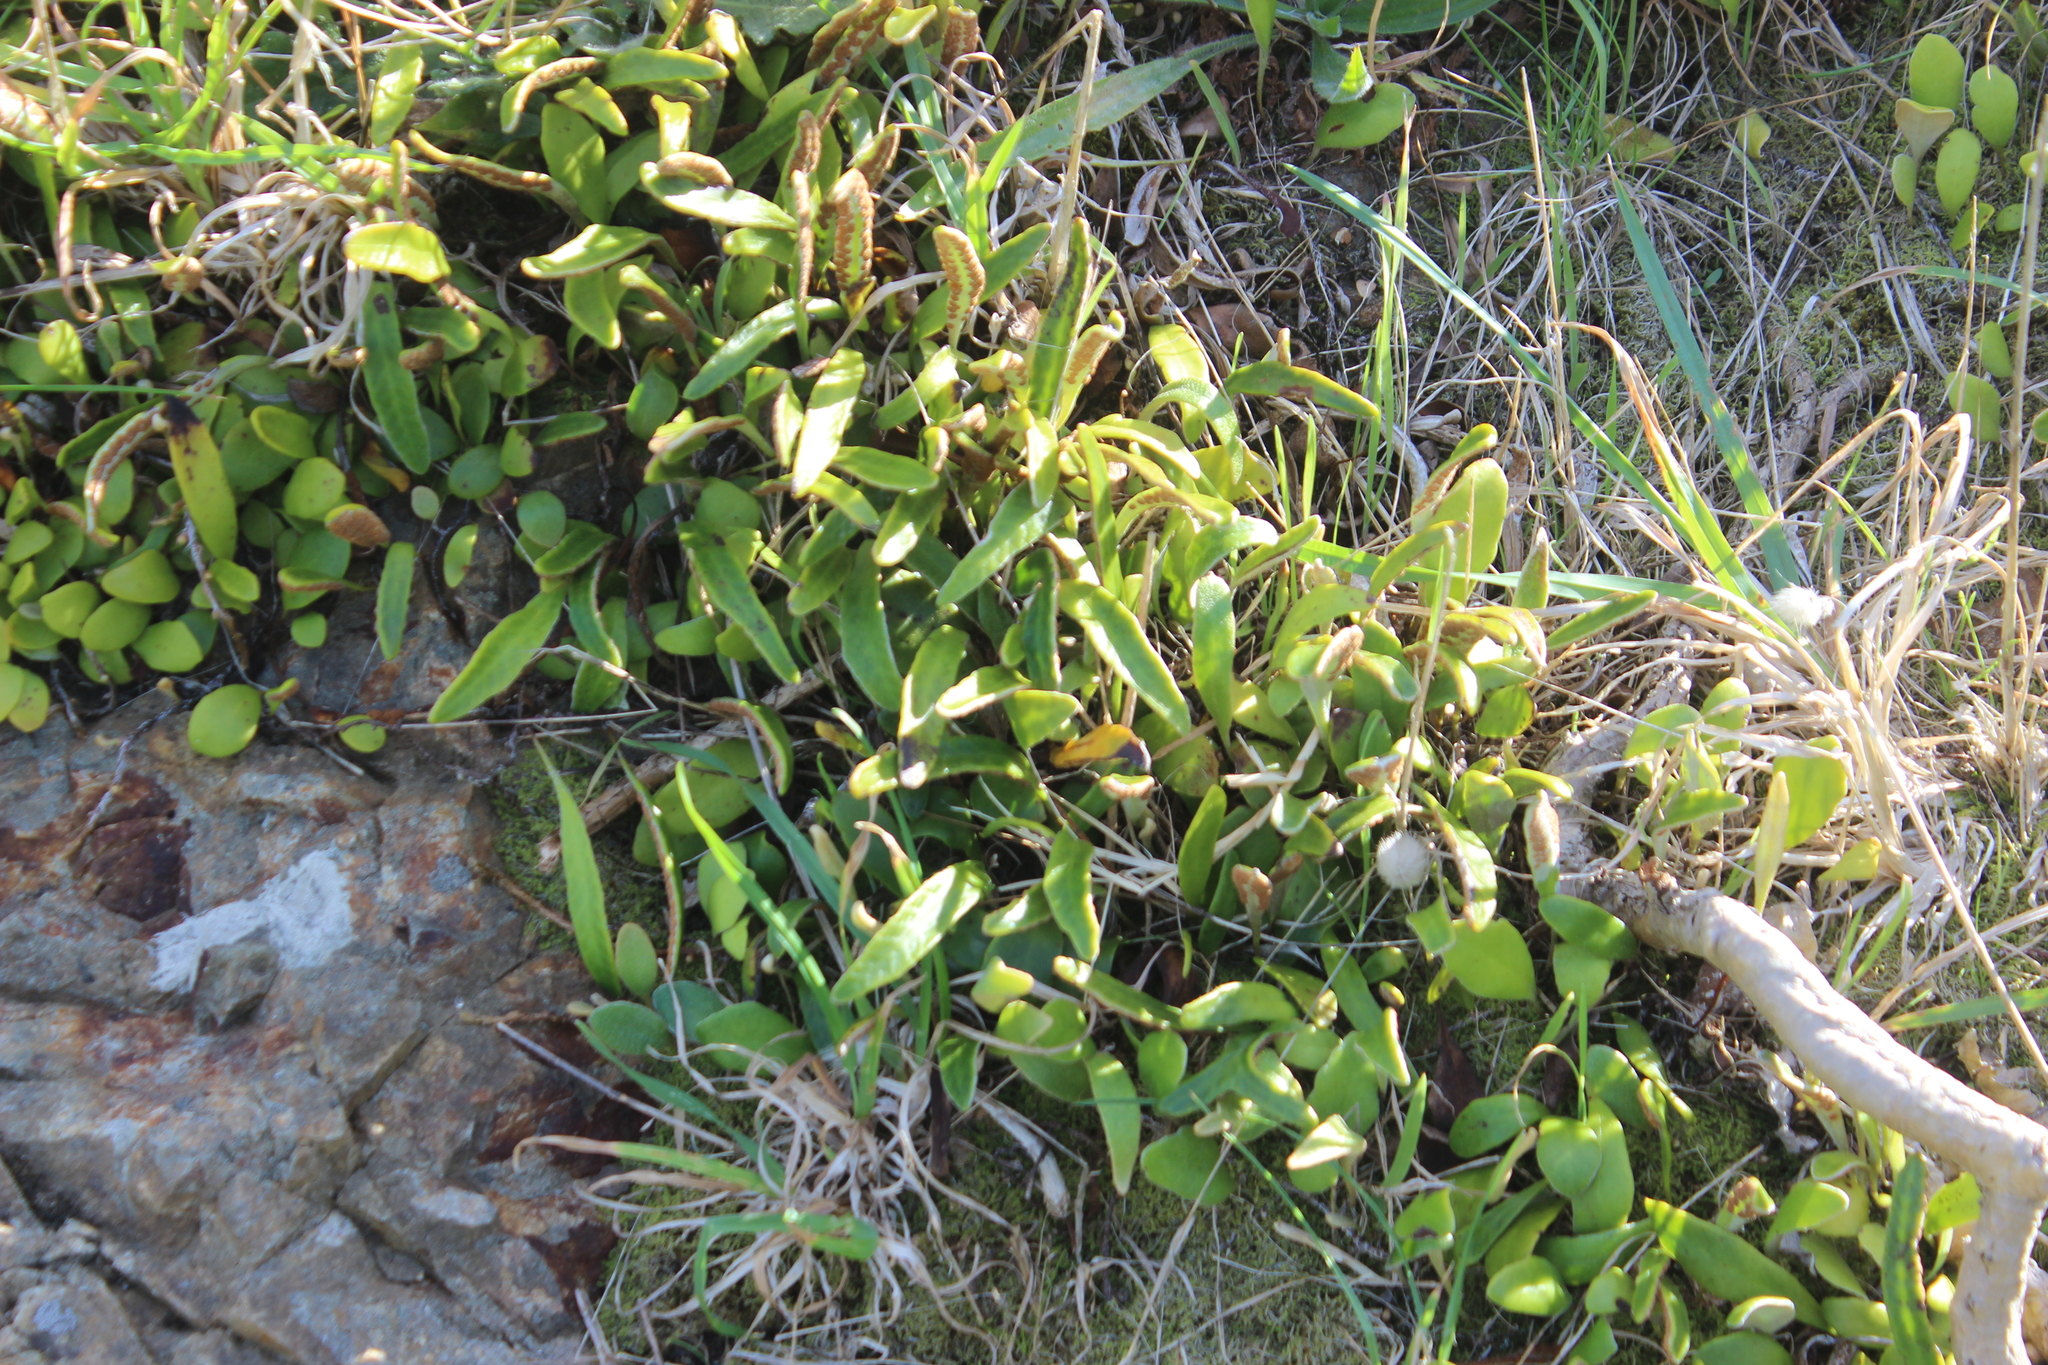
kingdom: Plantae
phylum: Tracheophyta
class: Polypodiopsida
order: Polypodiales
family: Polypodiaceae
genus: Pyrrosia
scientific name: Pyrrosia eleagnifolia
